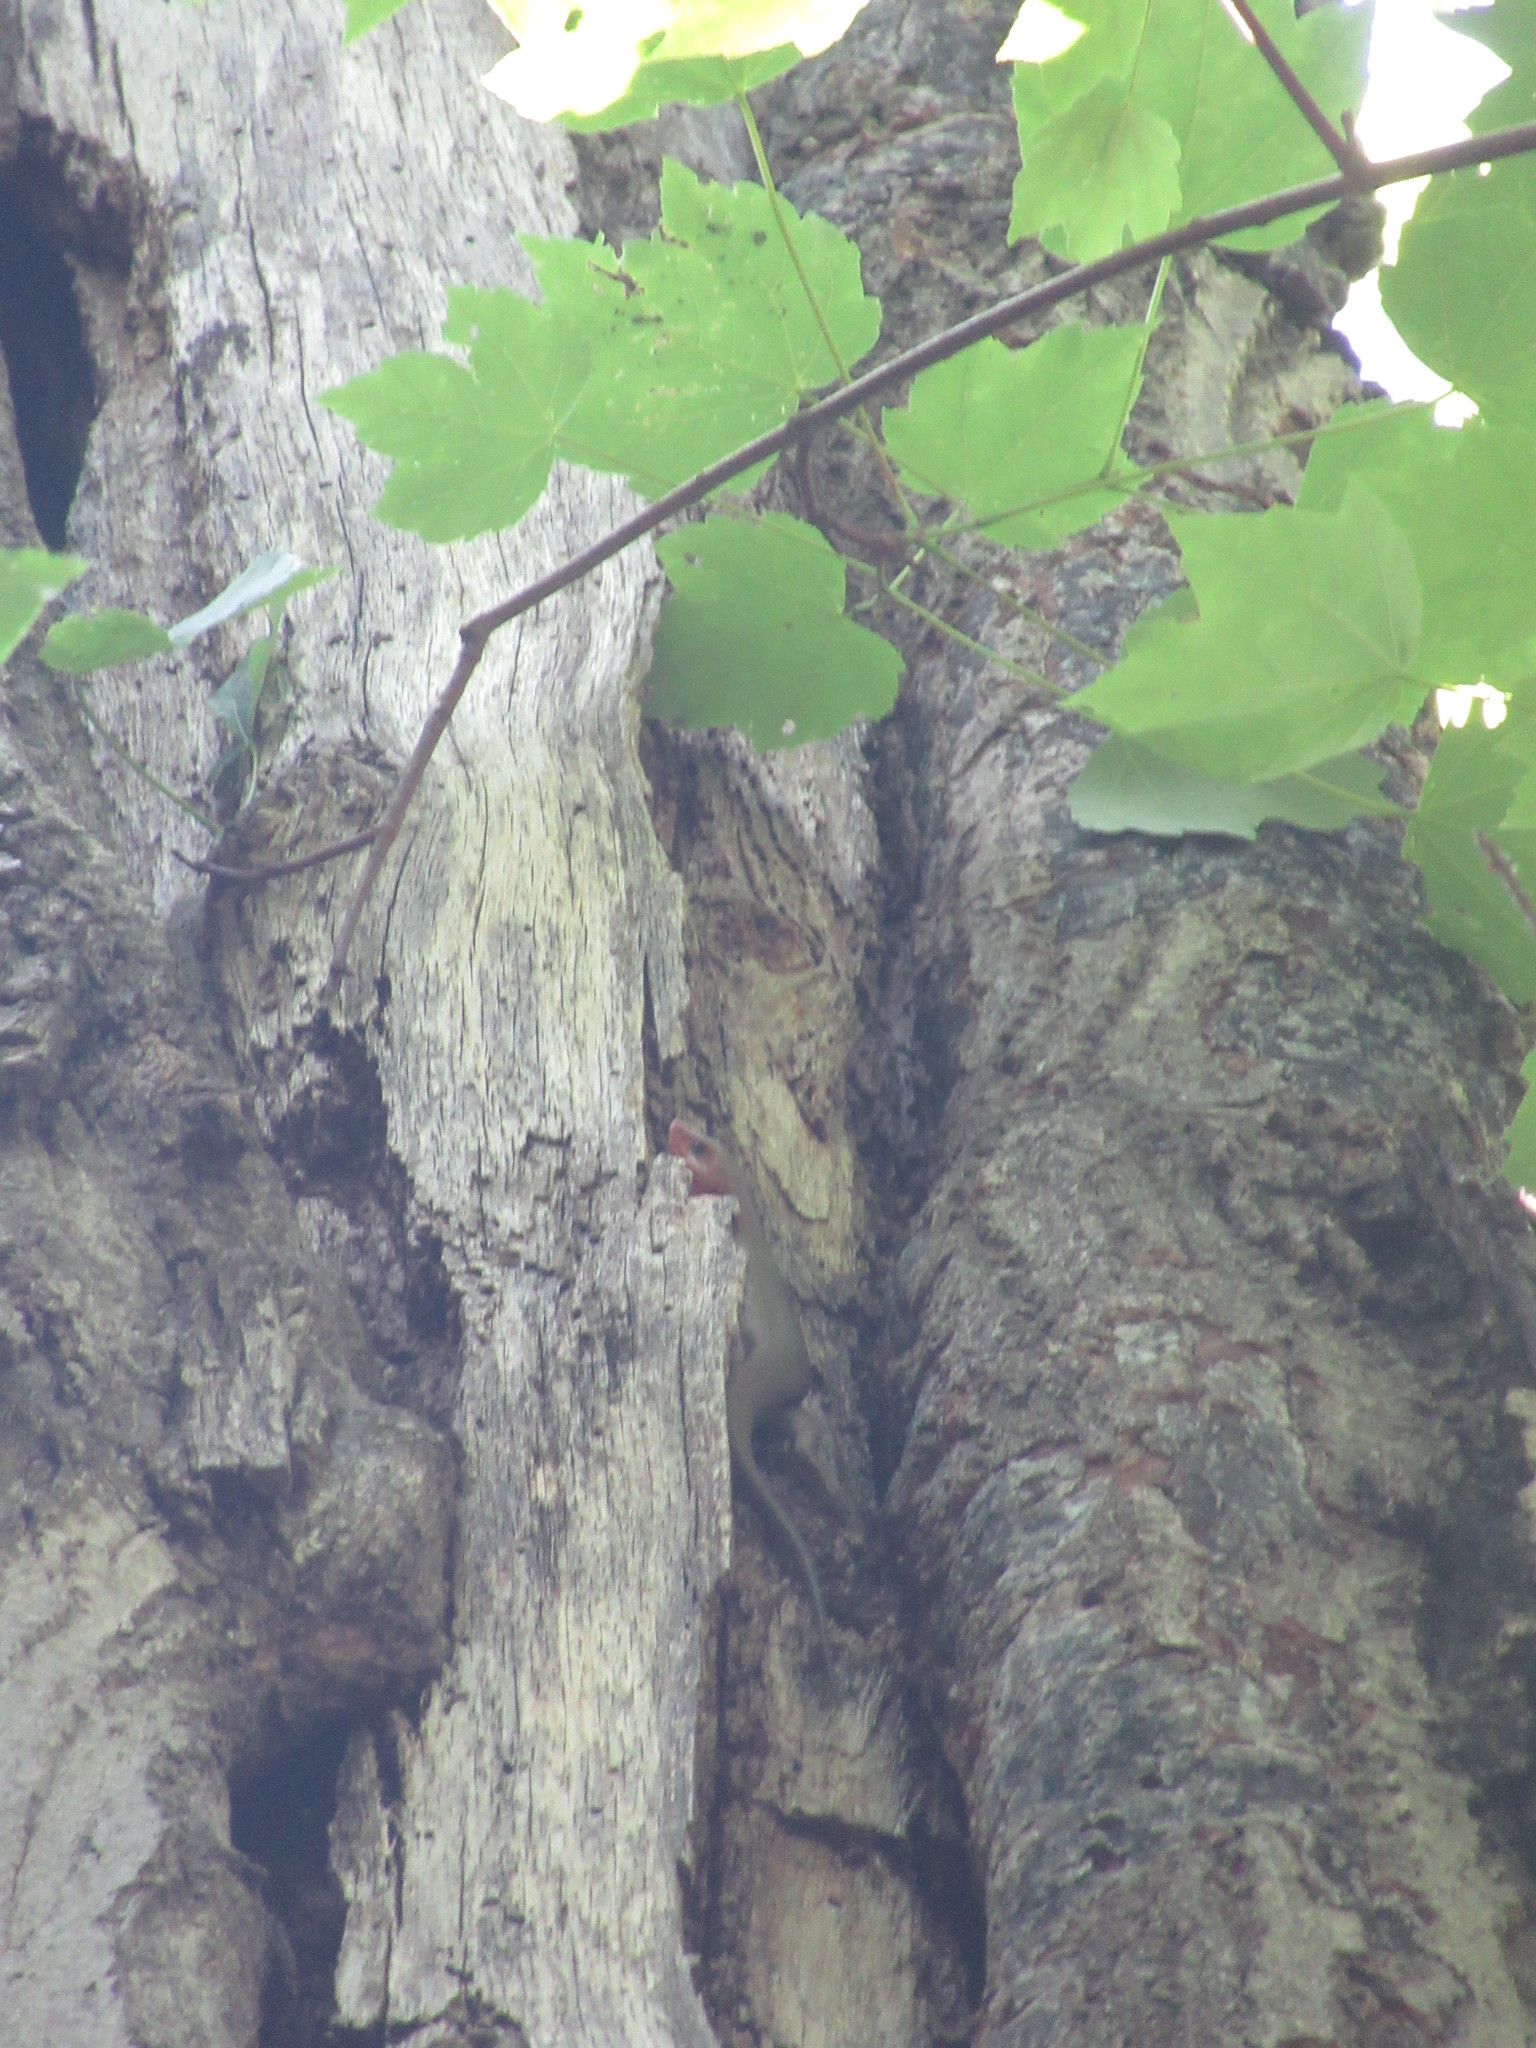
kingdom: Animalia
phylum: Chordata
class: Squamata
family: Scincidae
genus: Plestiodon
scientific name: Plestiodon laticeps
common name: Broadhead skink
